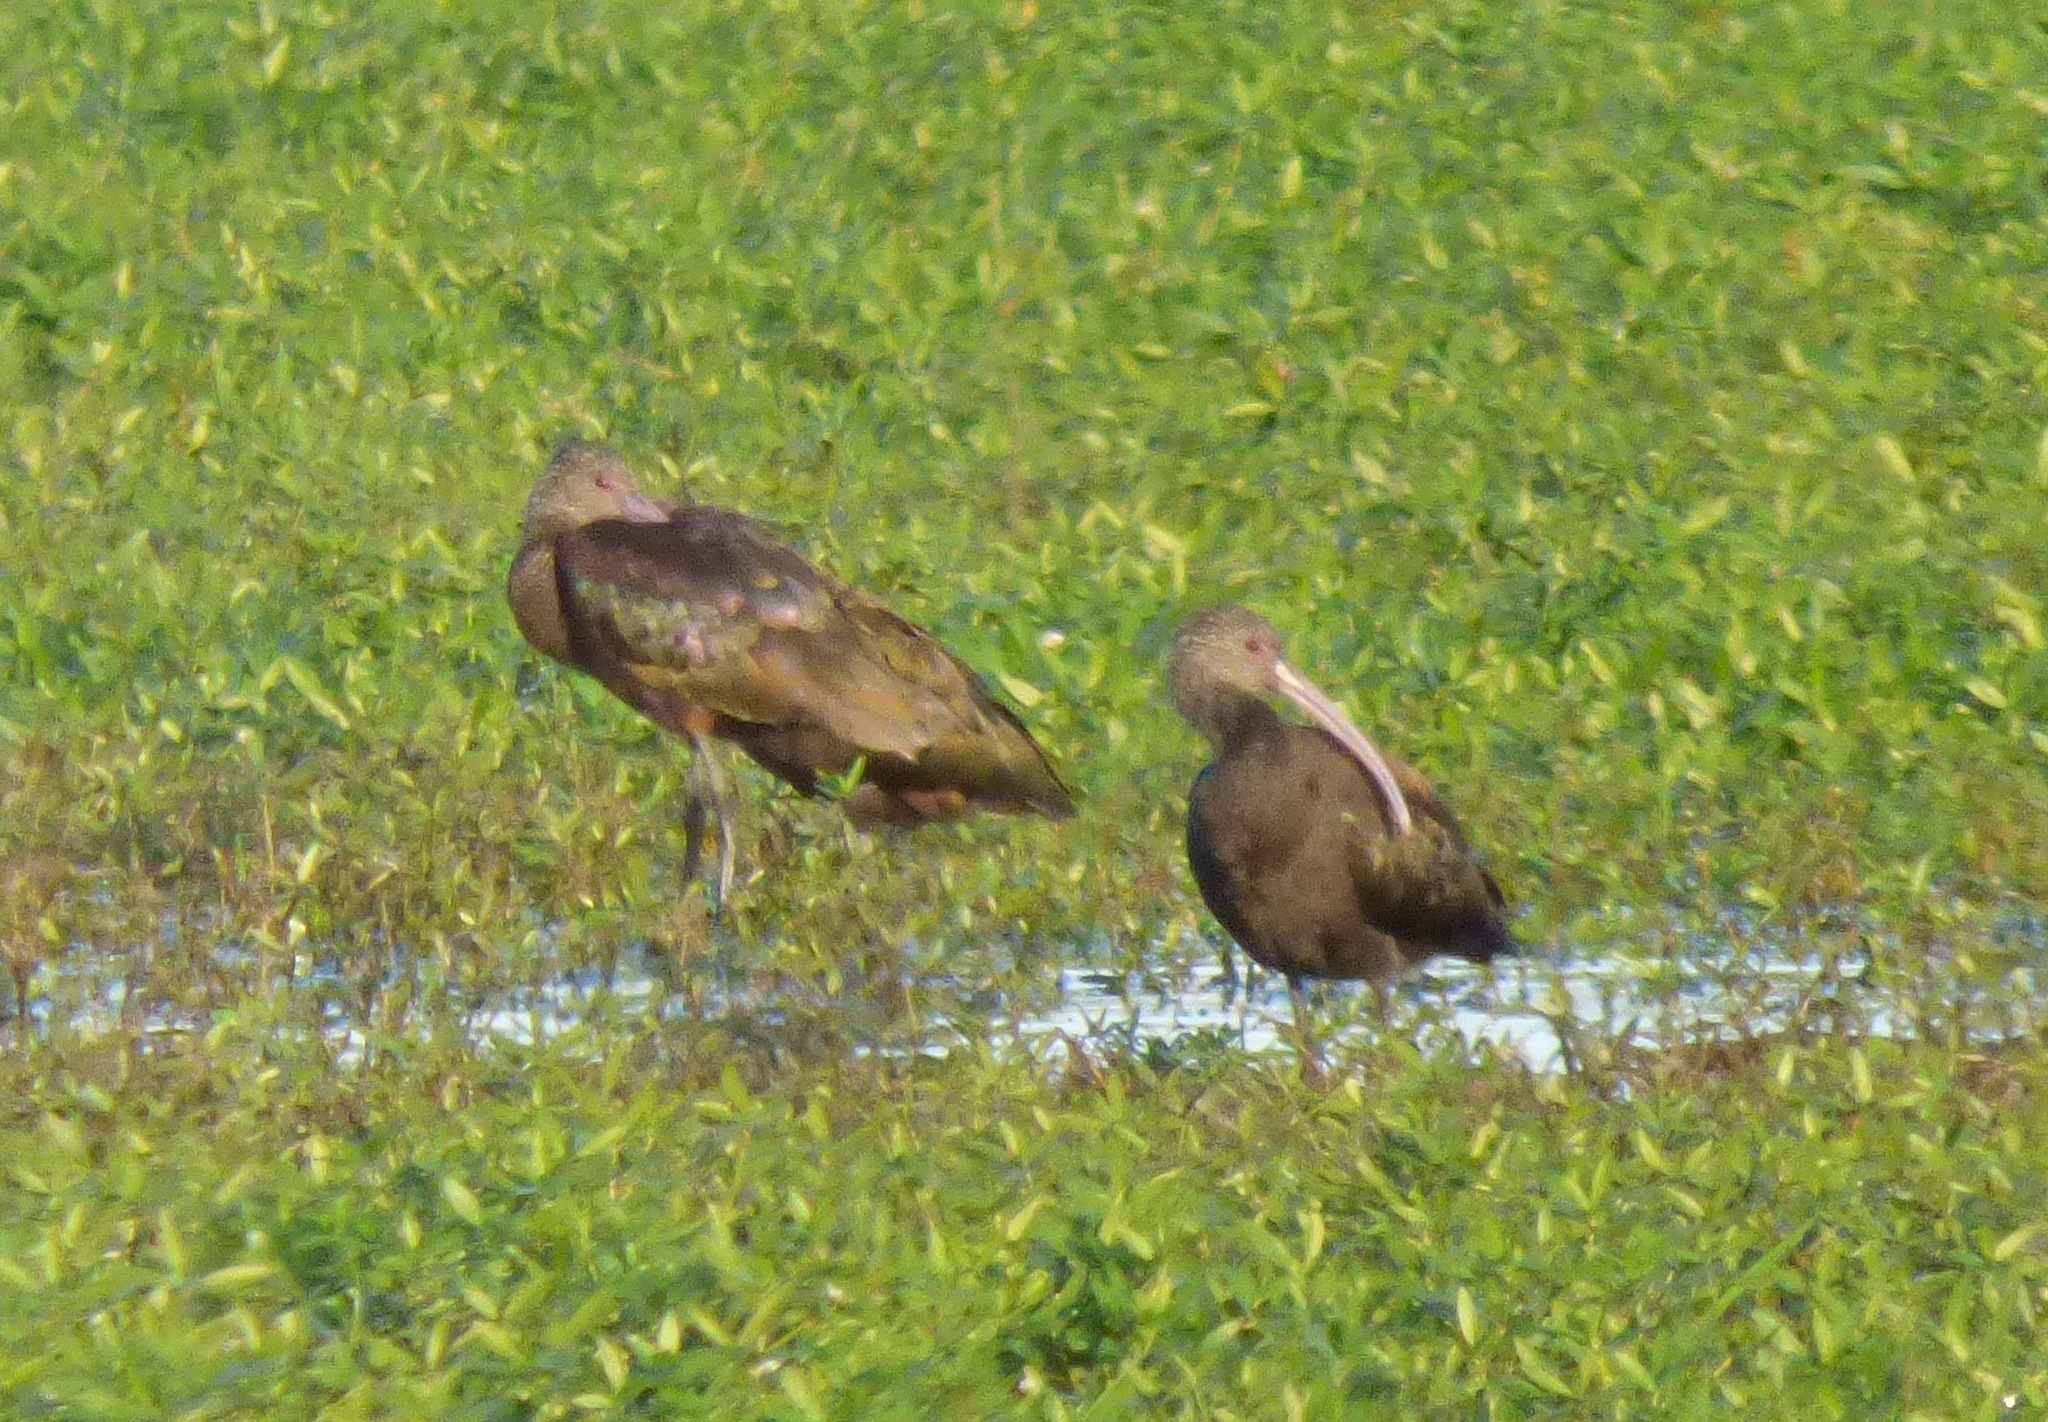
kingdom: Animalia
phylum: Chordata
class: Aves
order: Pelecaniformes
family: Threskiornithidae
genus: Plegadis
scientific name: Plegadis chihi
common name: White-faced ibis
